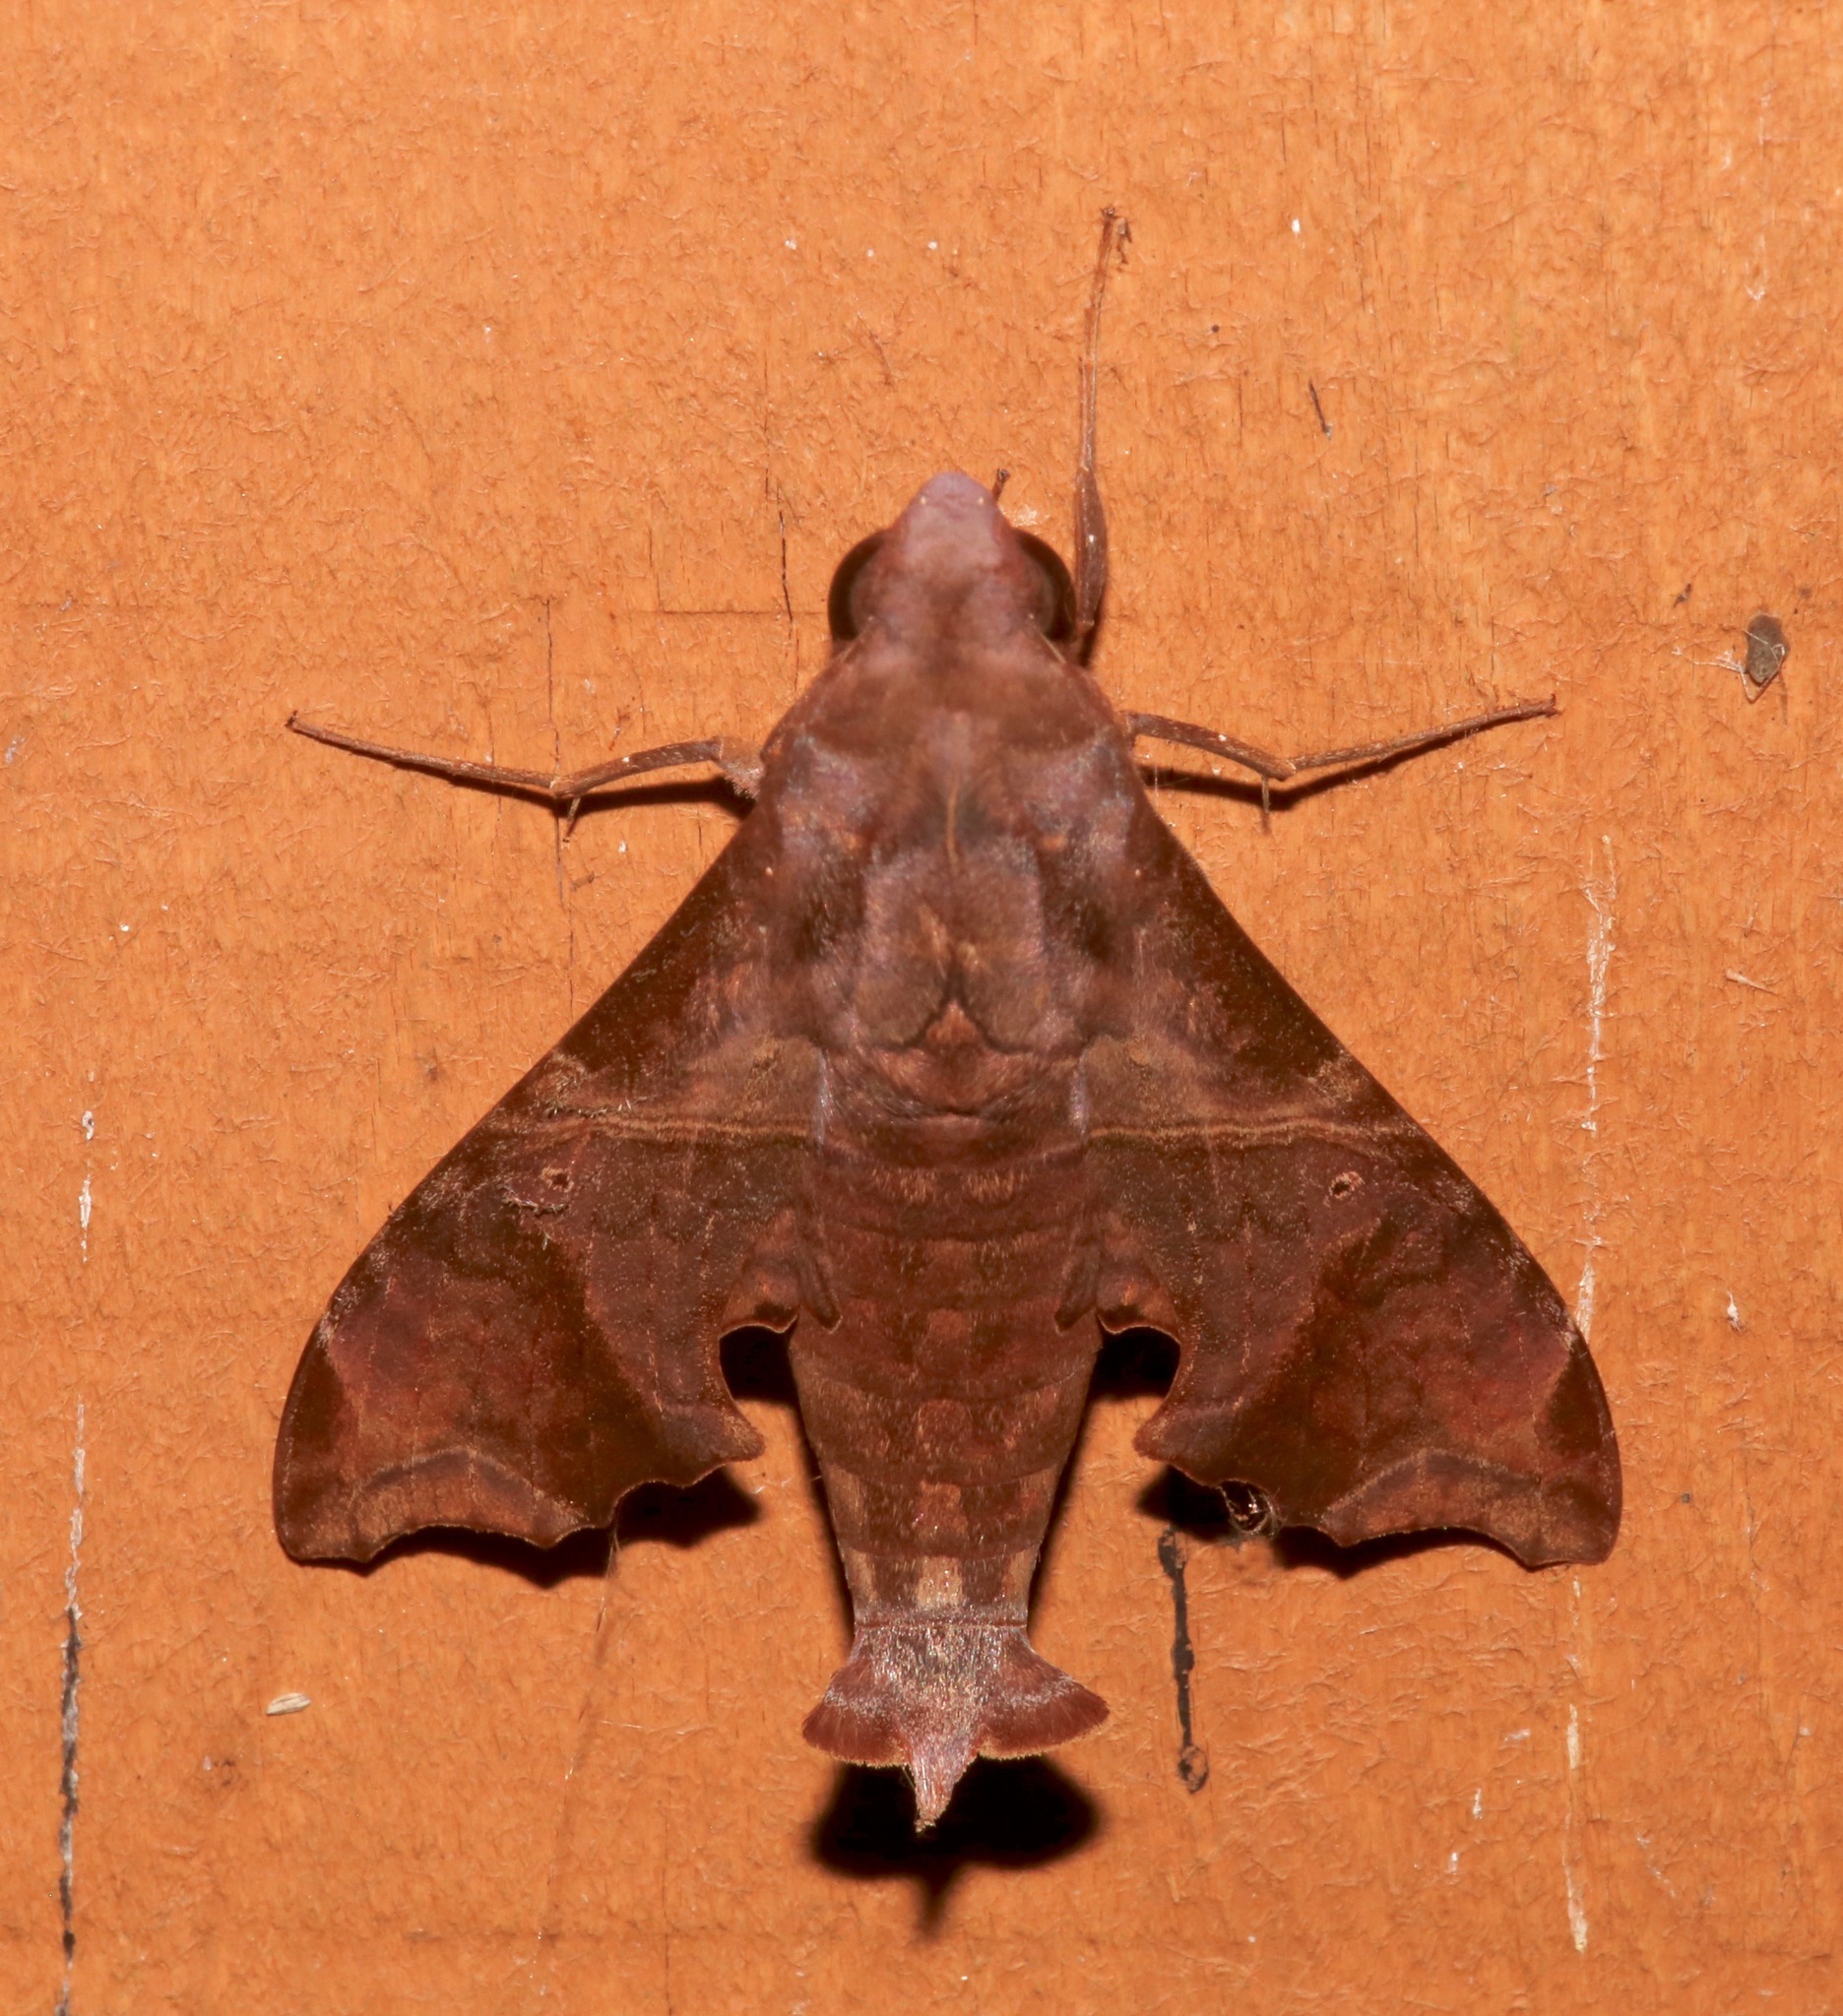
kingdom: Animalia
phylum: Arthropoda
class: Insecta
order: Lepidoptera
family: Sphingidae
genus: Enyo
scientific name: Enyo lugubris
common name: Mournful sphinx
